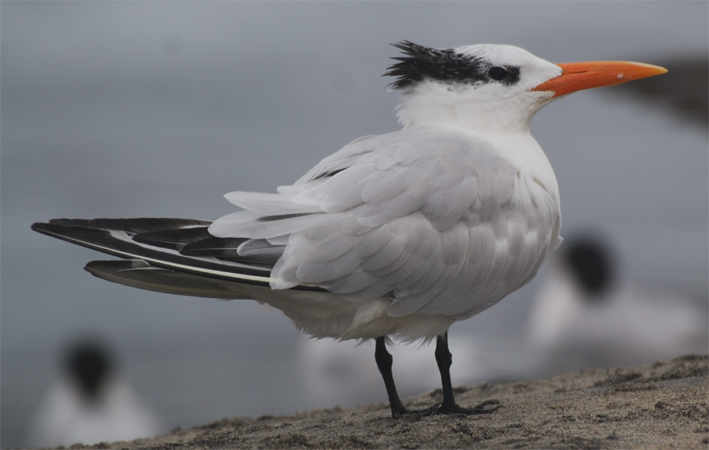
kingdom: Animalia
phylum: Chordata
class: Aves
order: Charadriiformes
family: Laridae
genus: Thalasseus
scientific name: Thalasseus maximus
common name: Royal tern
